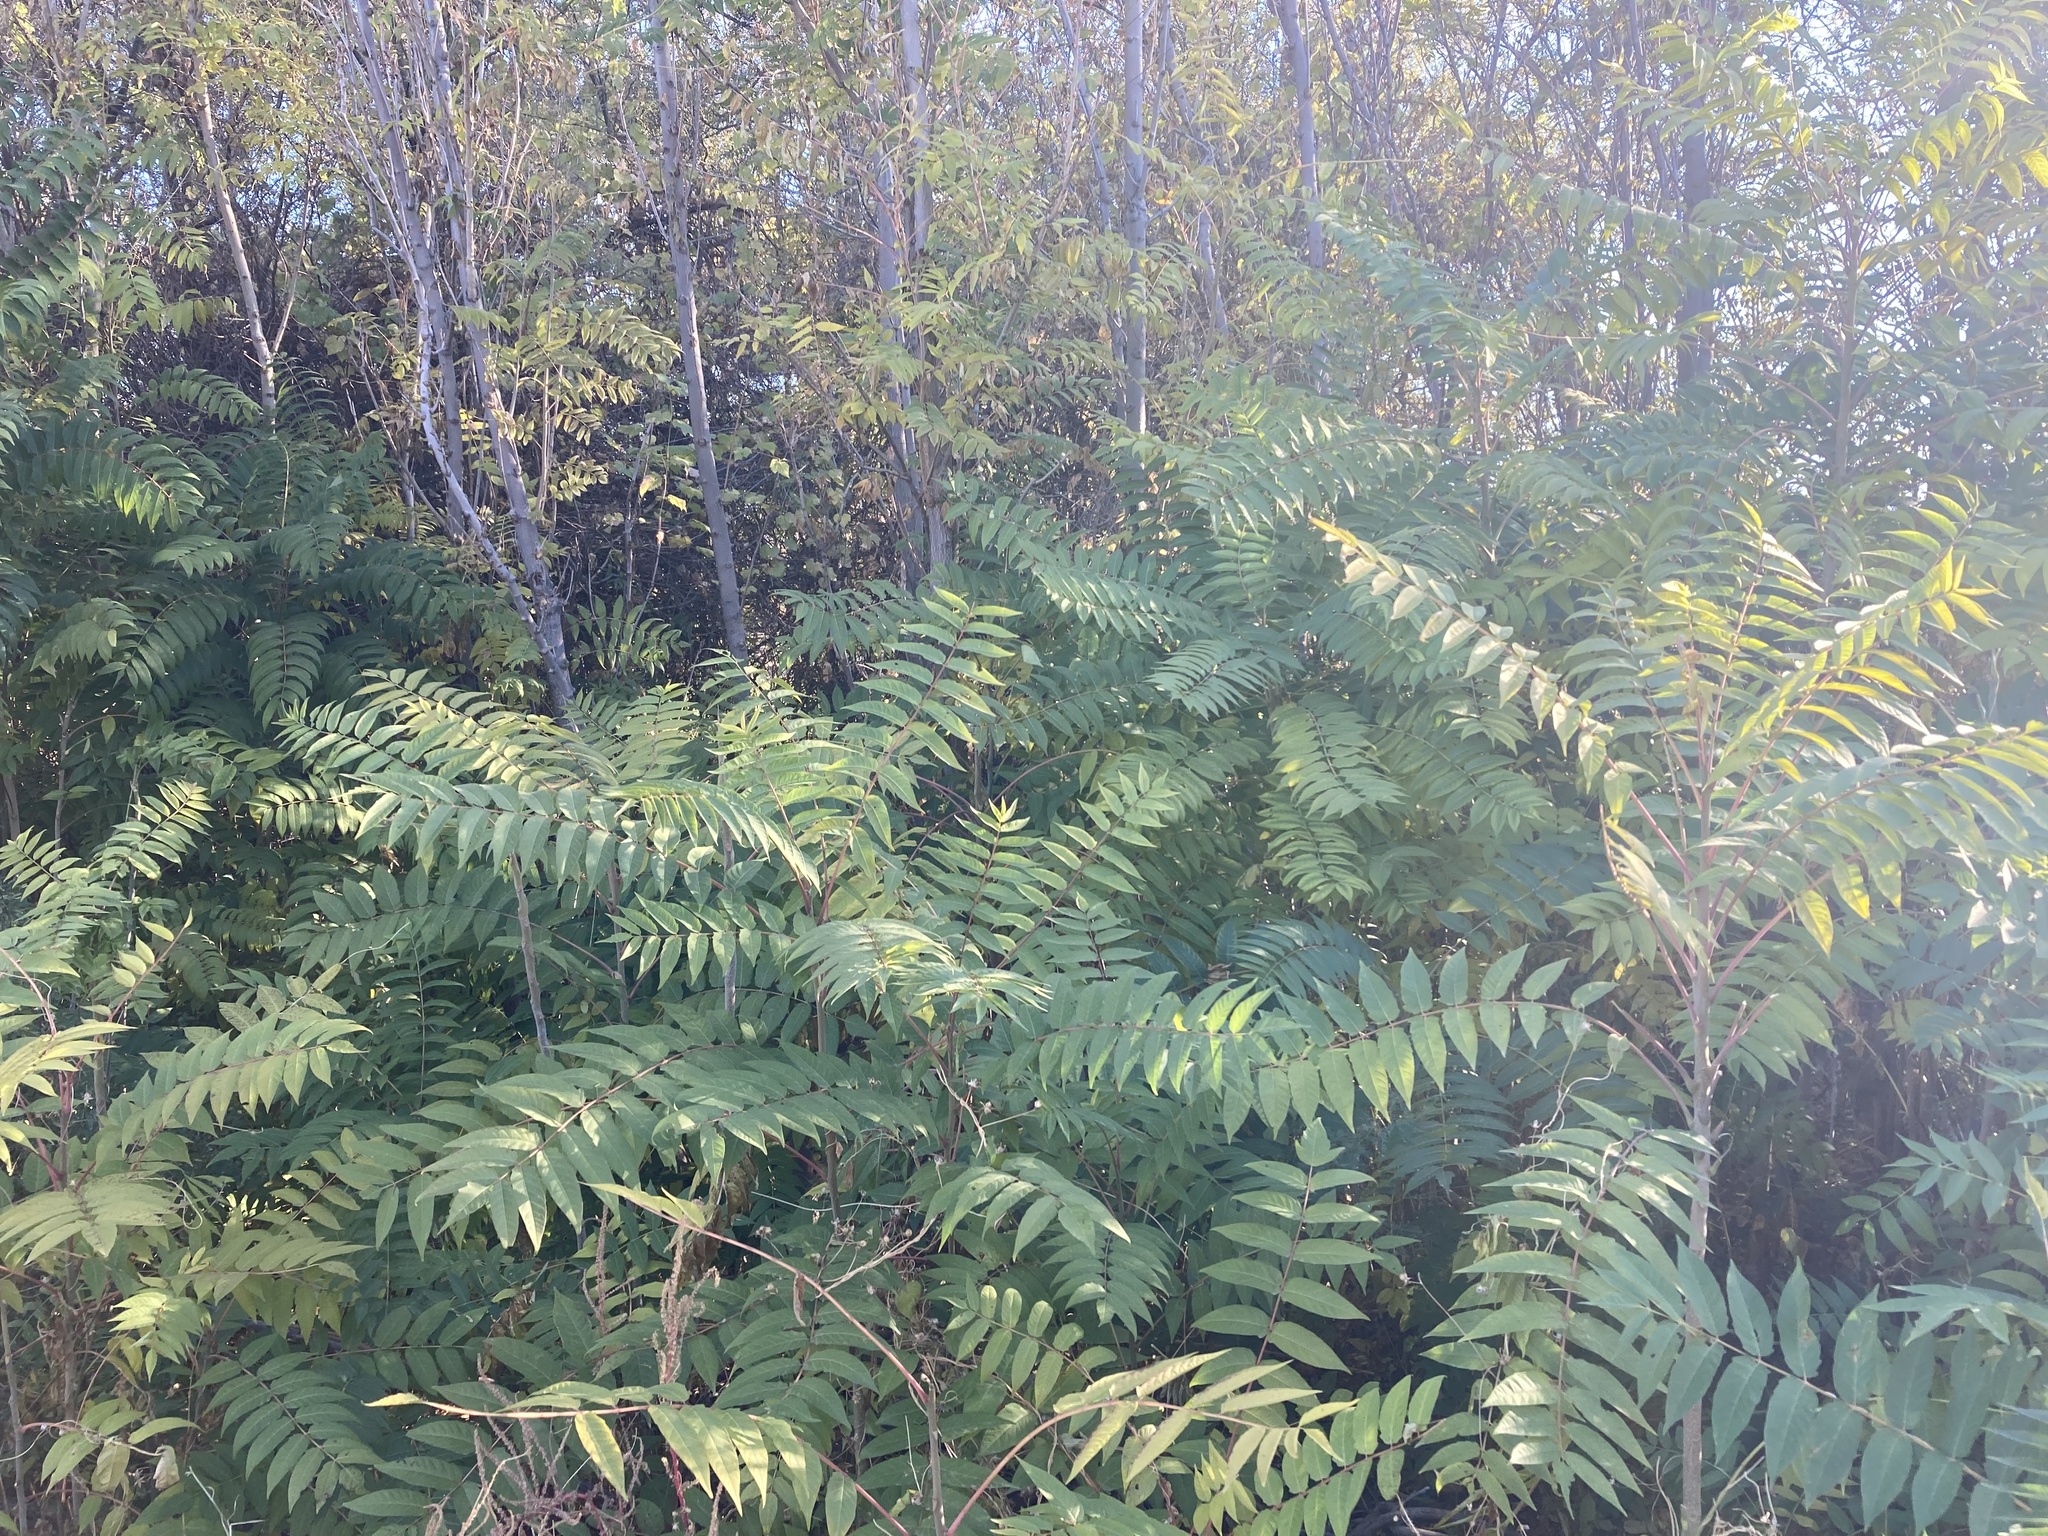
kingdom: Plantae
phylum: Tracheophyta
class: Magnoliopsida
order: Sapindales
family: Simaroubaceae
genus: Ailanthus
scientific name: Ailanthus altissima
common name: Tree-of-heaven
